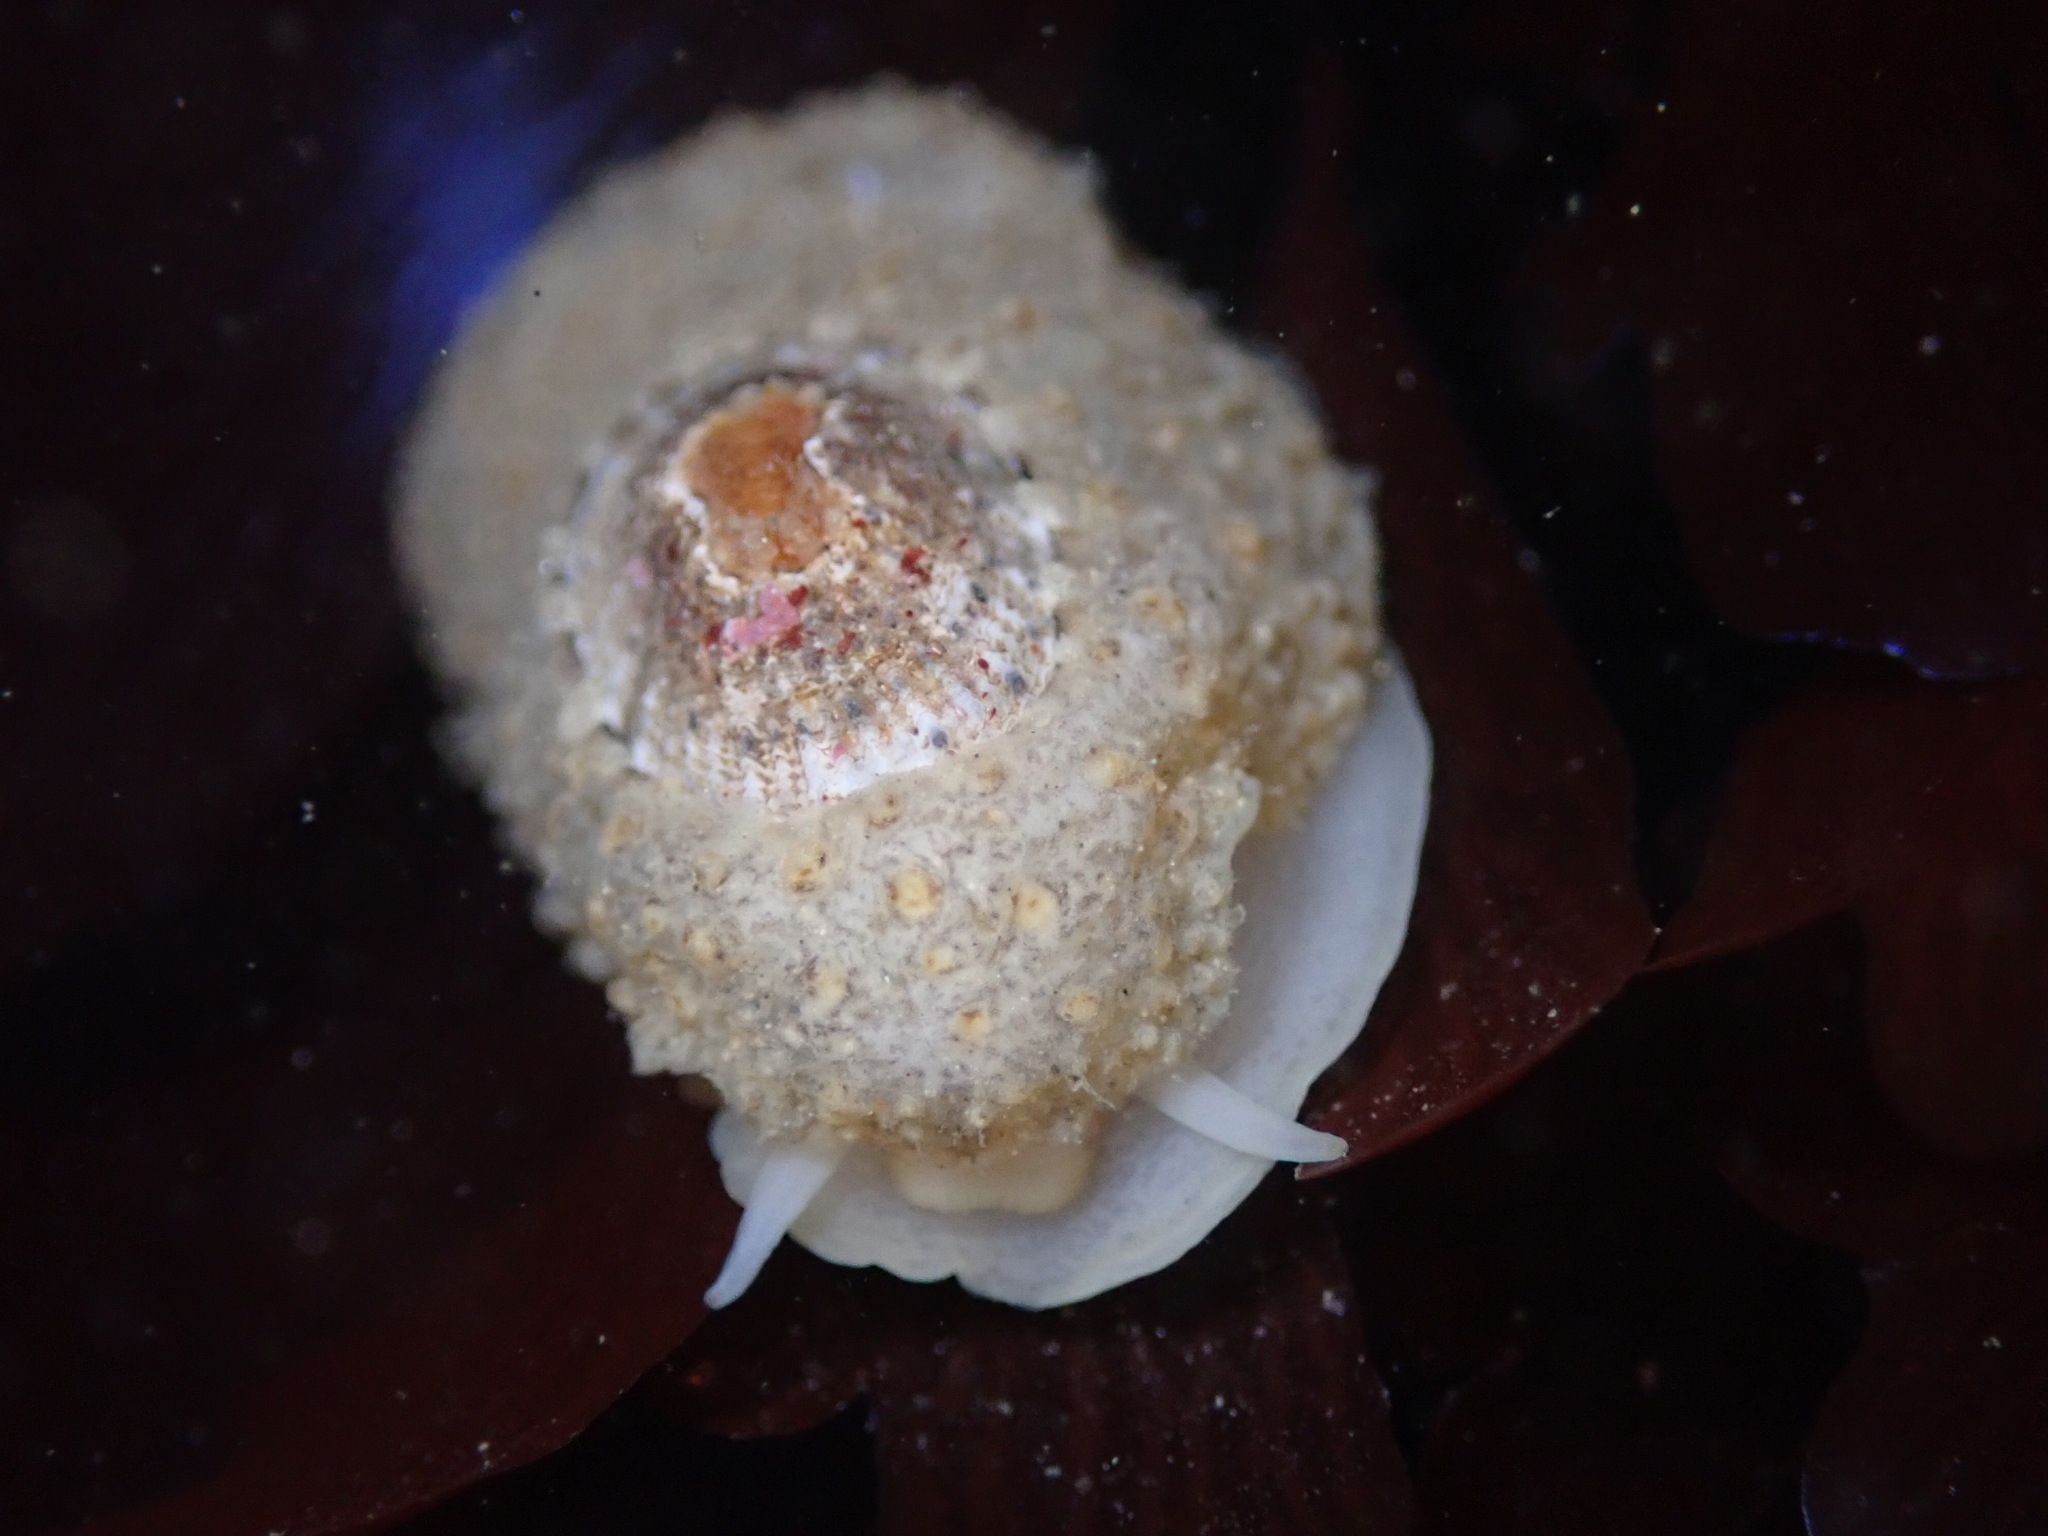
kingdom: Animalia
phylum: Mollusca
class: Gastropoda
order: Lepetellida
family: Fissurellidae
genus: Fissurellidea
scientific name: Fissurellidea bimaculata
